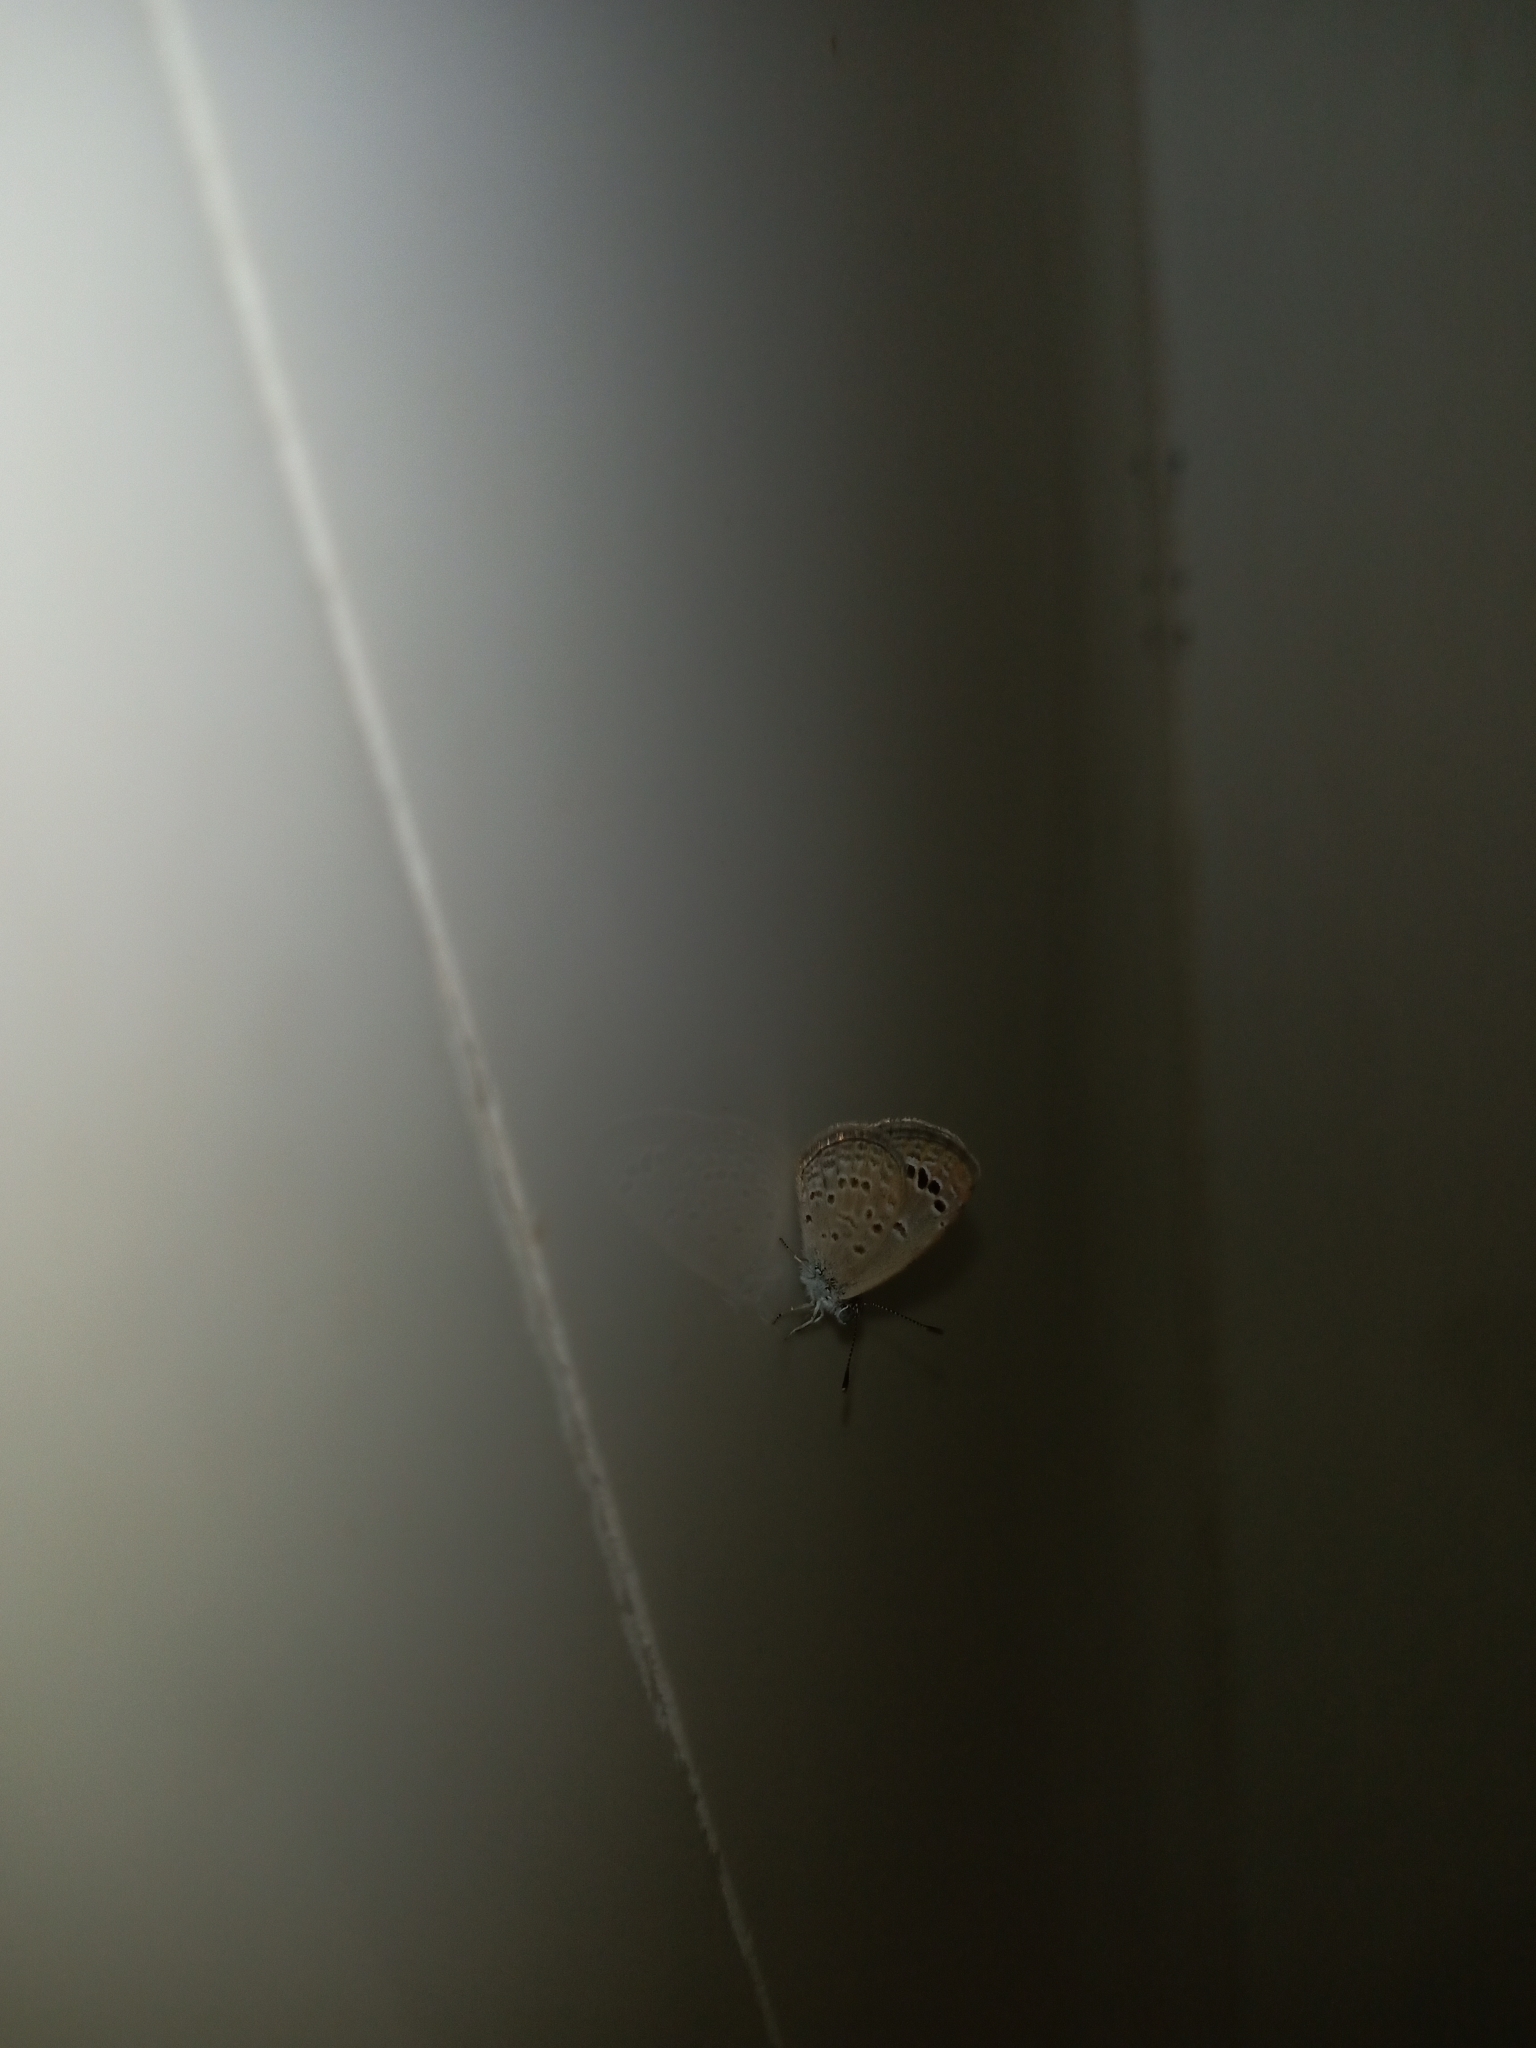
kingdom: Animalia
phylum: Arthropoda
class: Insecta
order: Lepidoptera
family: Lycaenidae
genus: Zizina
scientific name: Zizina otis
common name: Lesser grass blue
